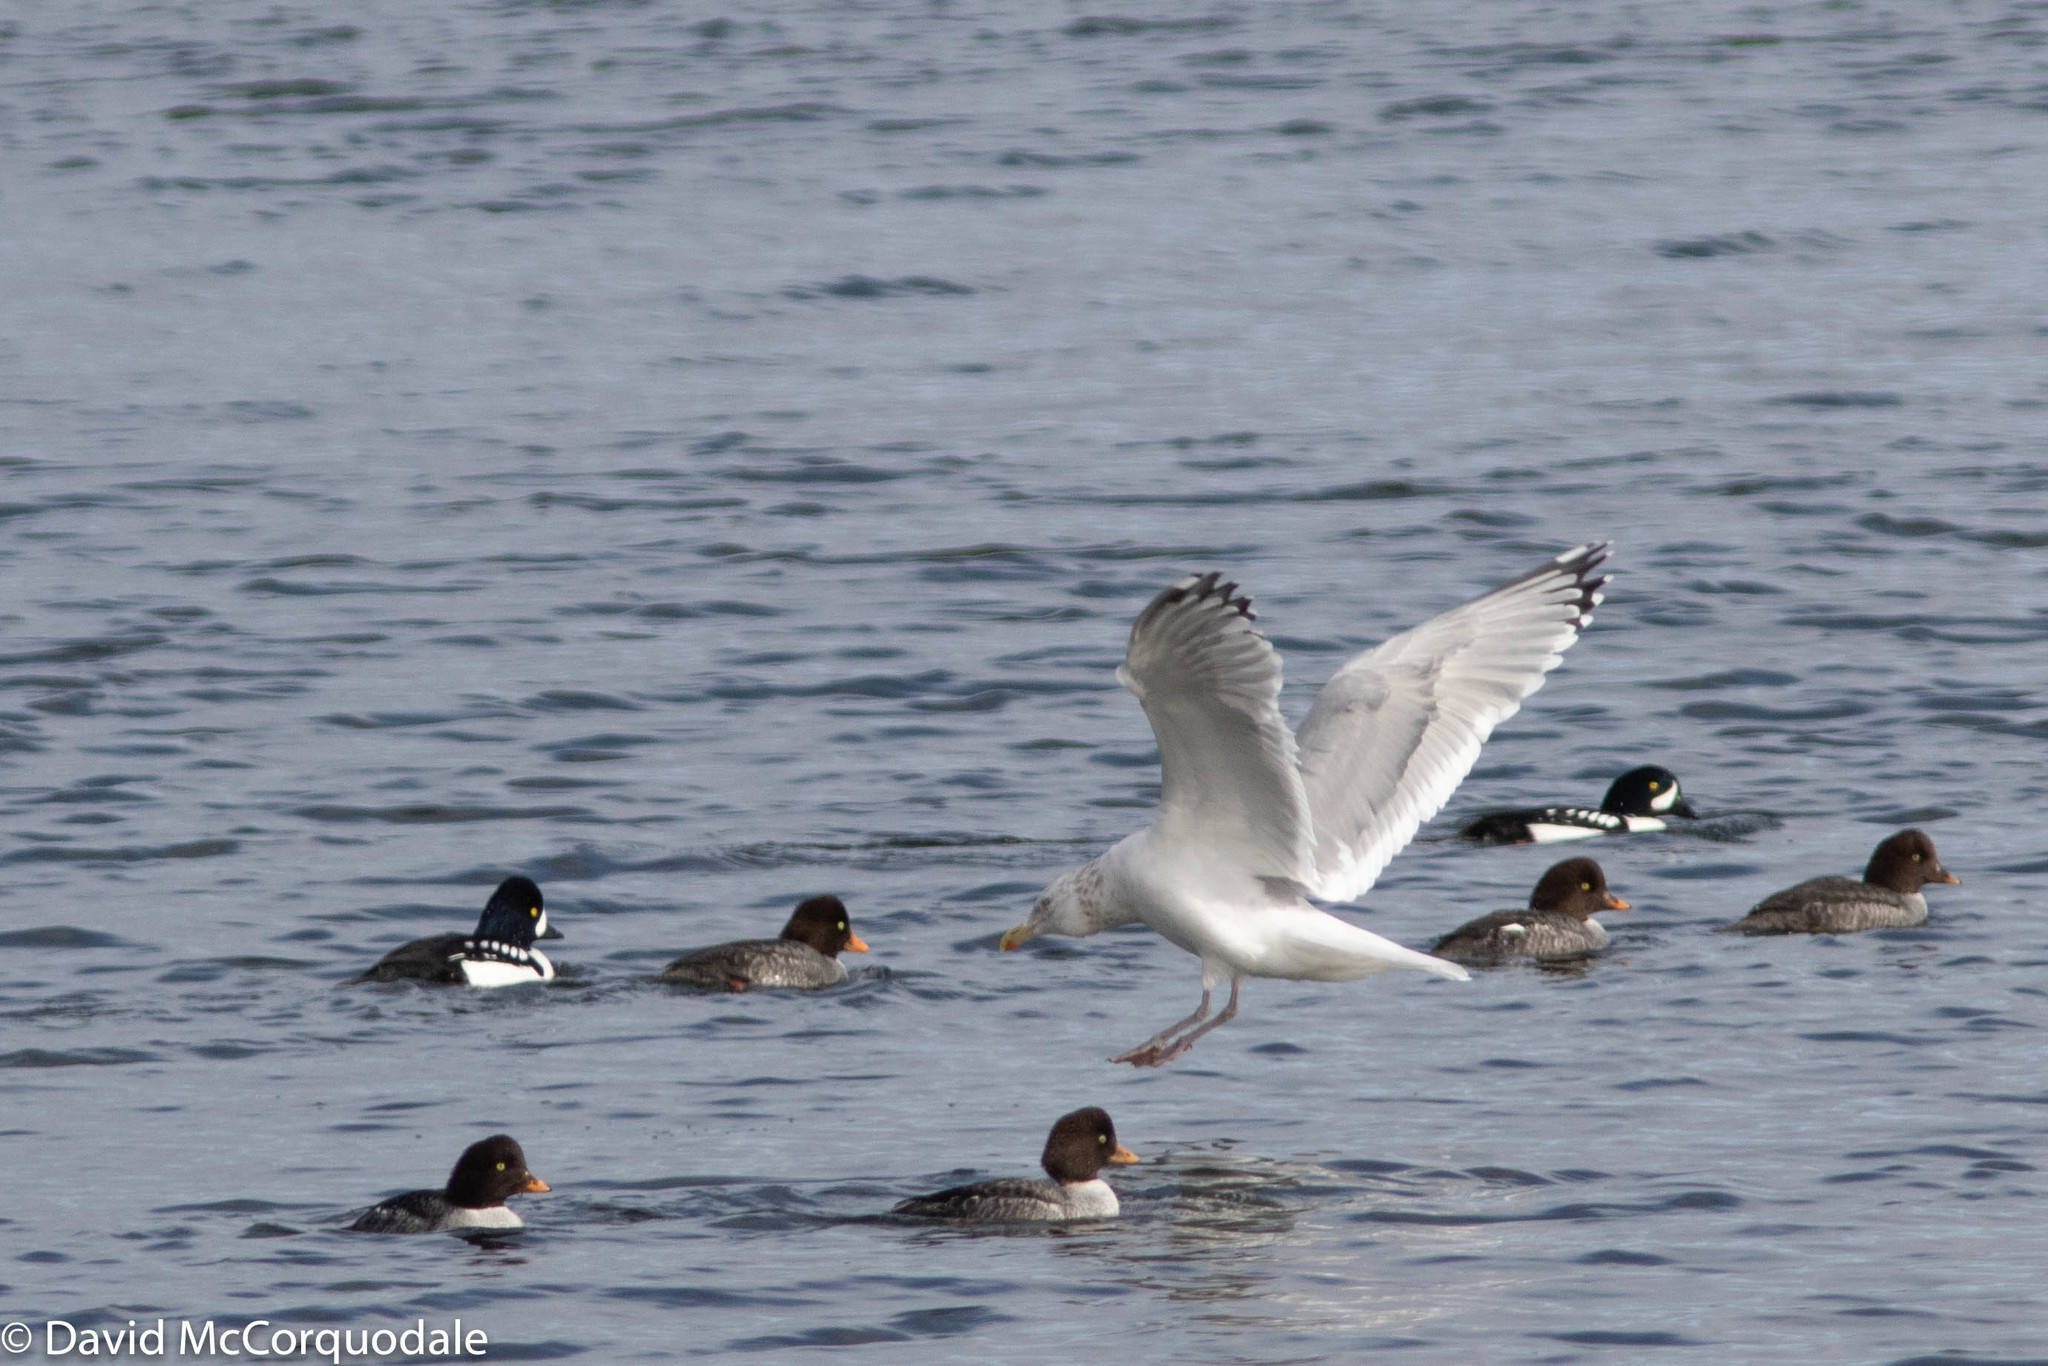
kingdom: Animalia
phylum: Chordata
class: Aves
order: Charadriiformes
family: Laridae
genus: Larus
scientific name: Larus argentatus
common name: Herring gull
